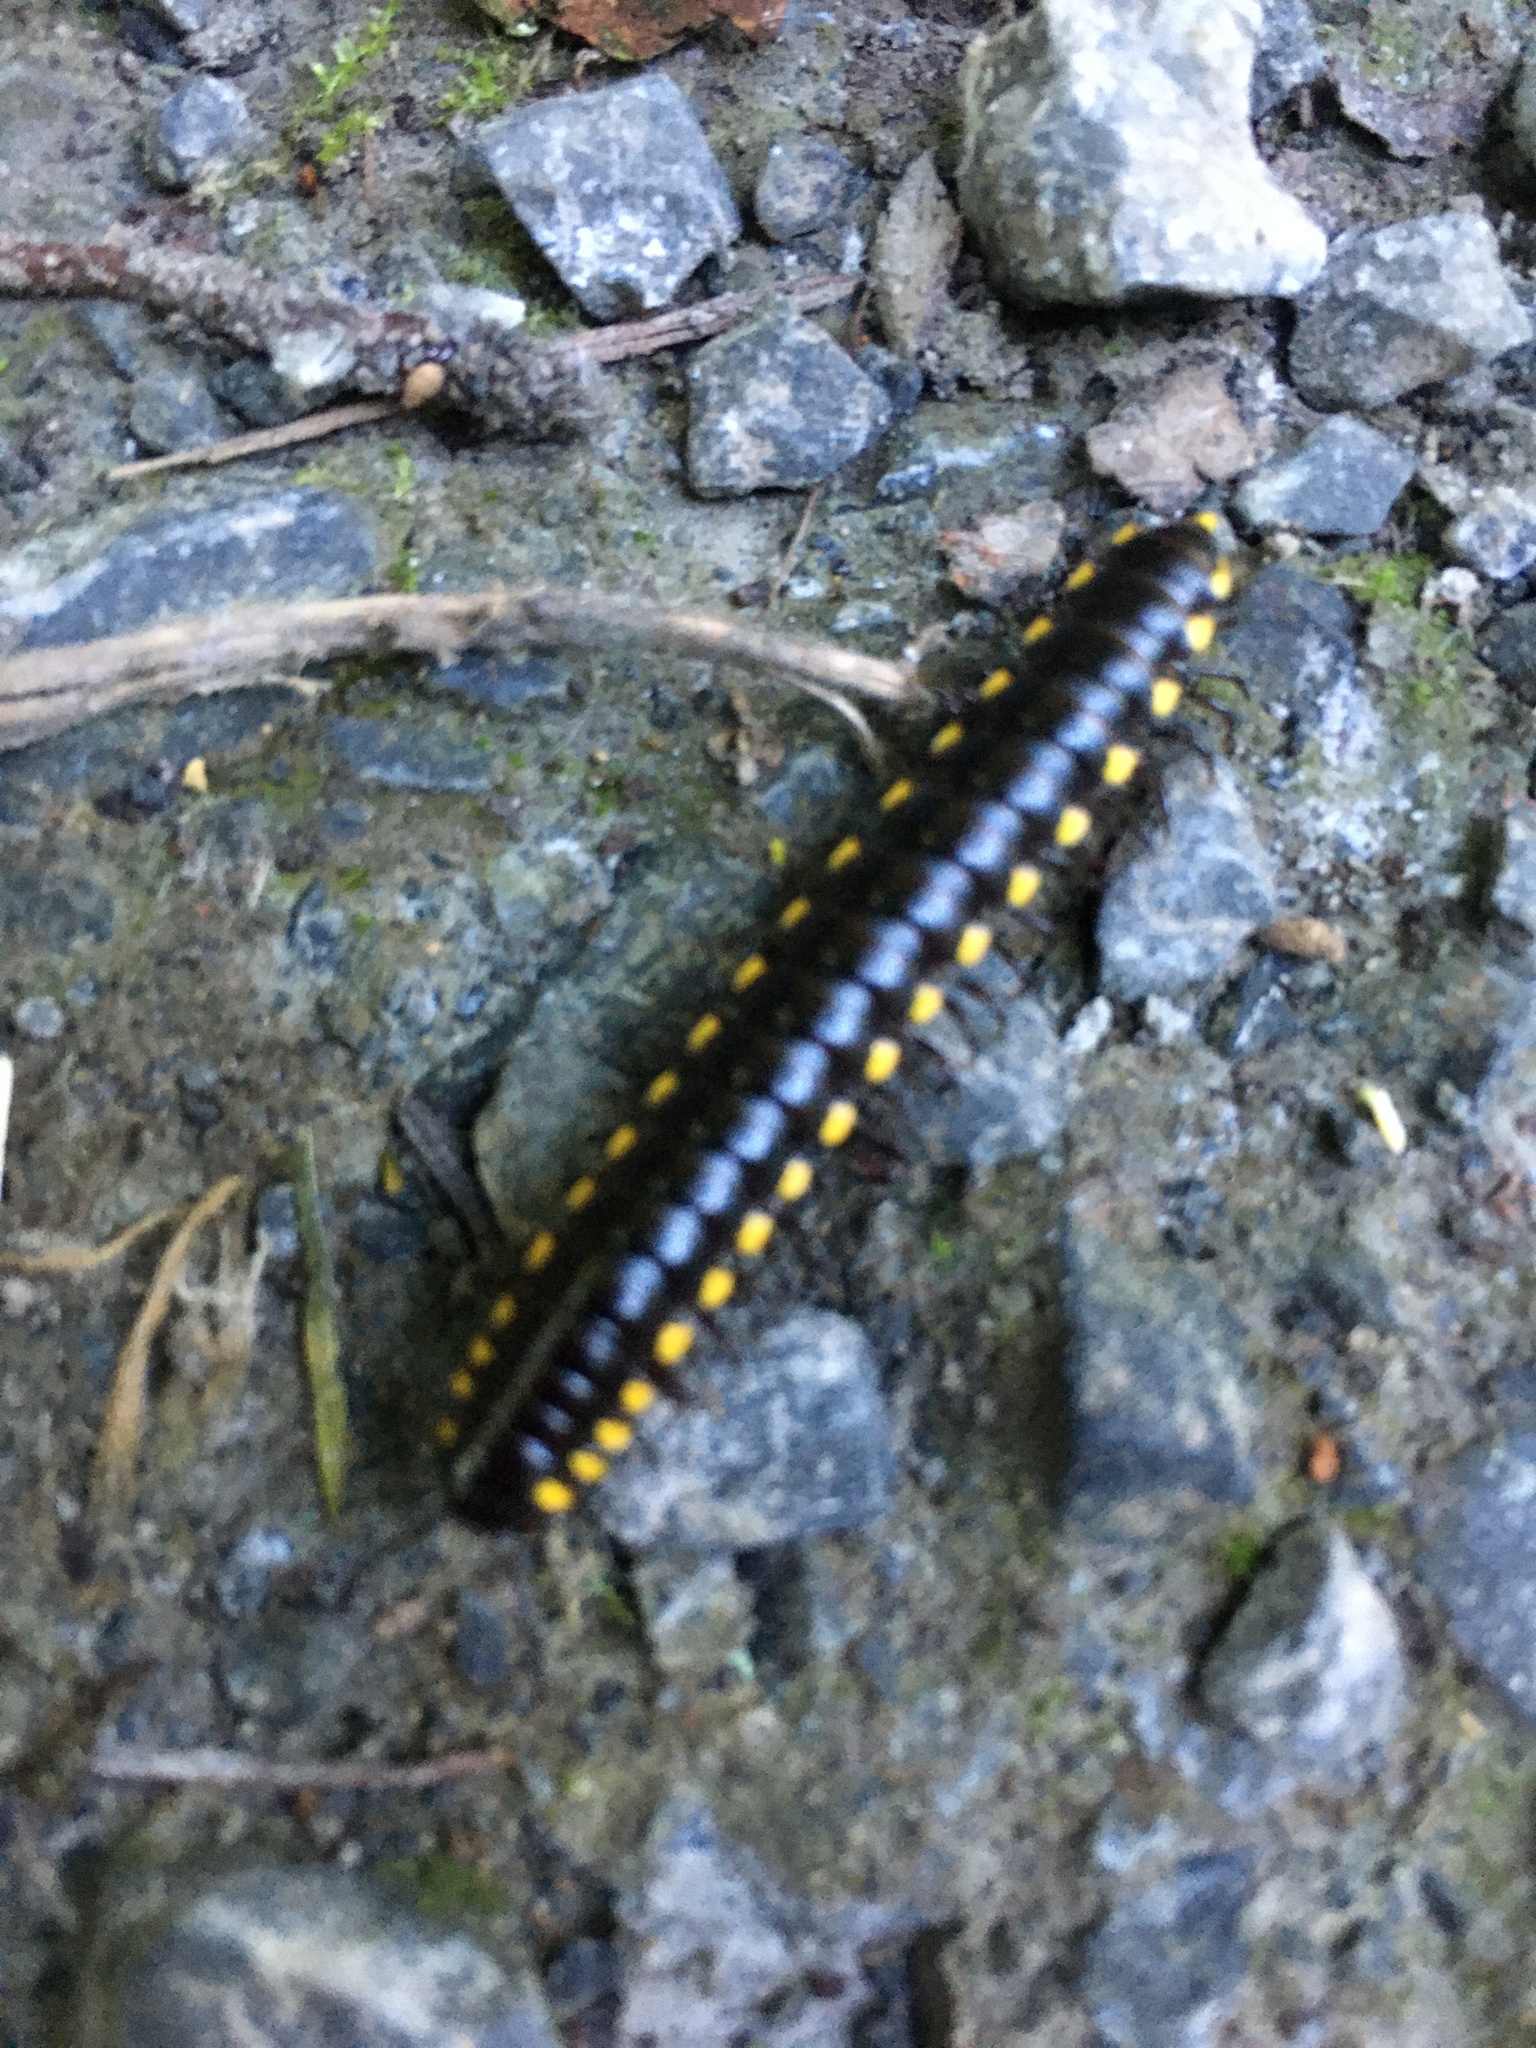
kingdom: Animalia
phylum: Arthropoda
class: Diplopoda
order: Polydesmida
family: Xystodesmidae
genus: Harpaphe
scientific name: Harpaphe haydeniana
